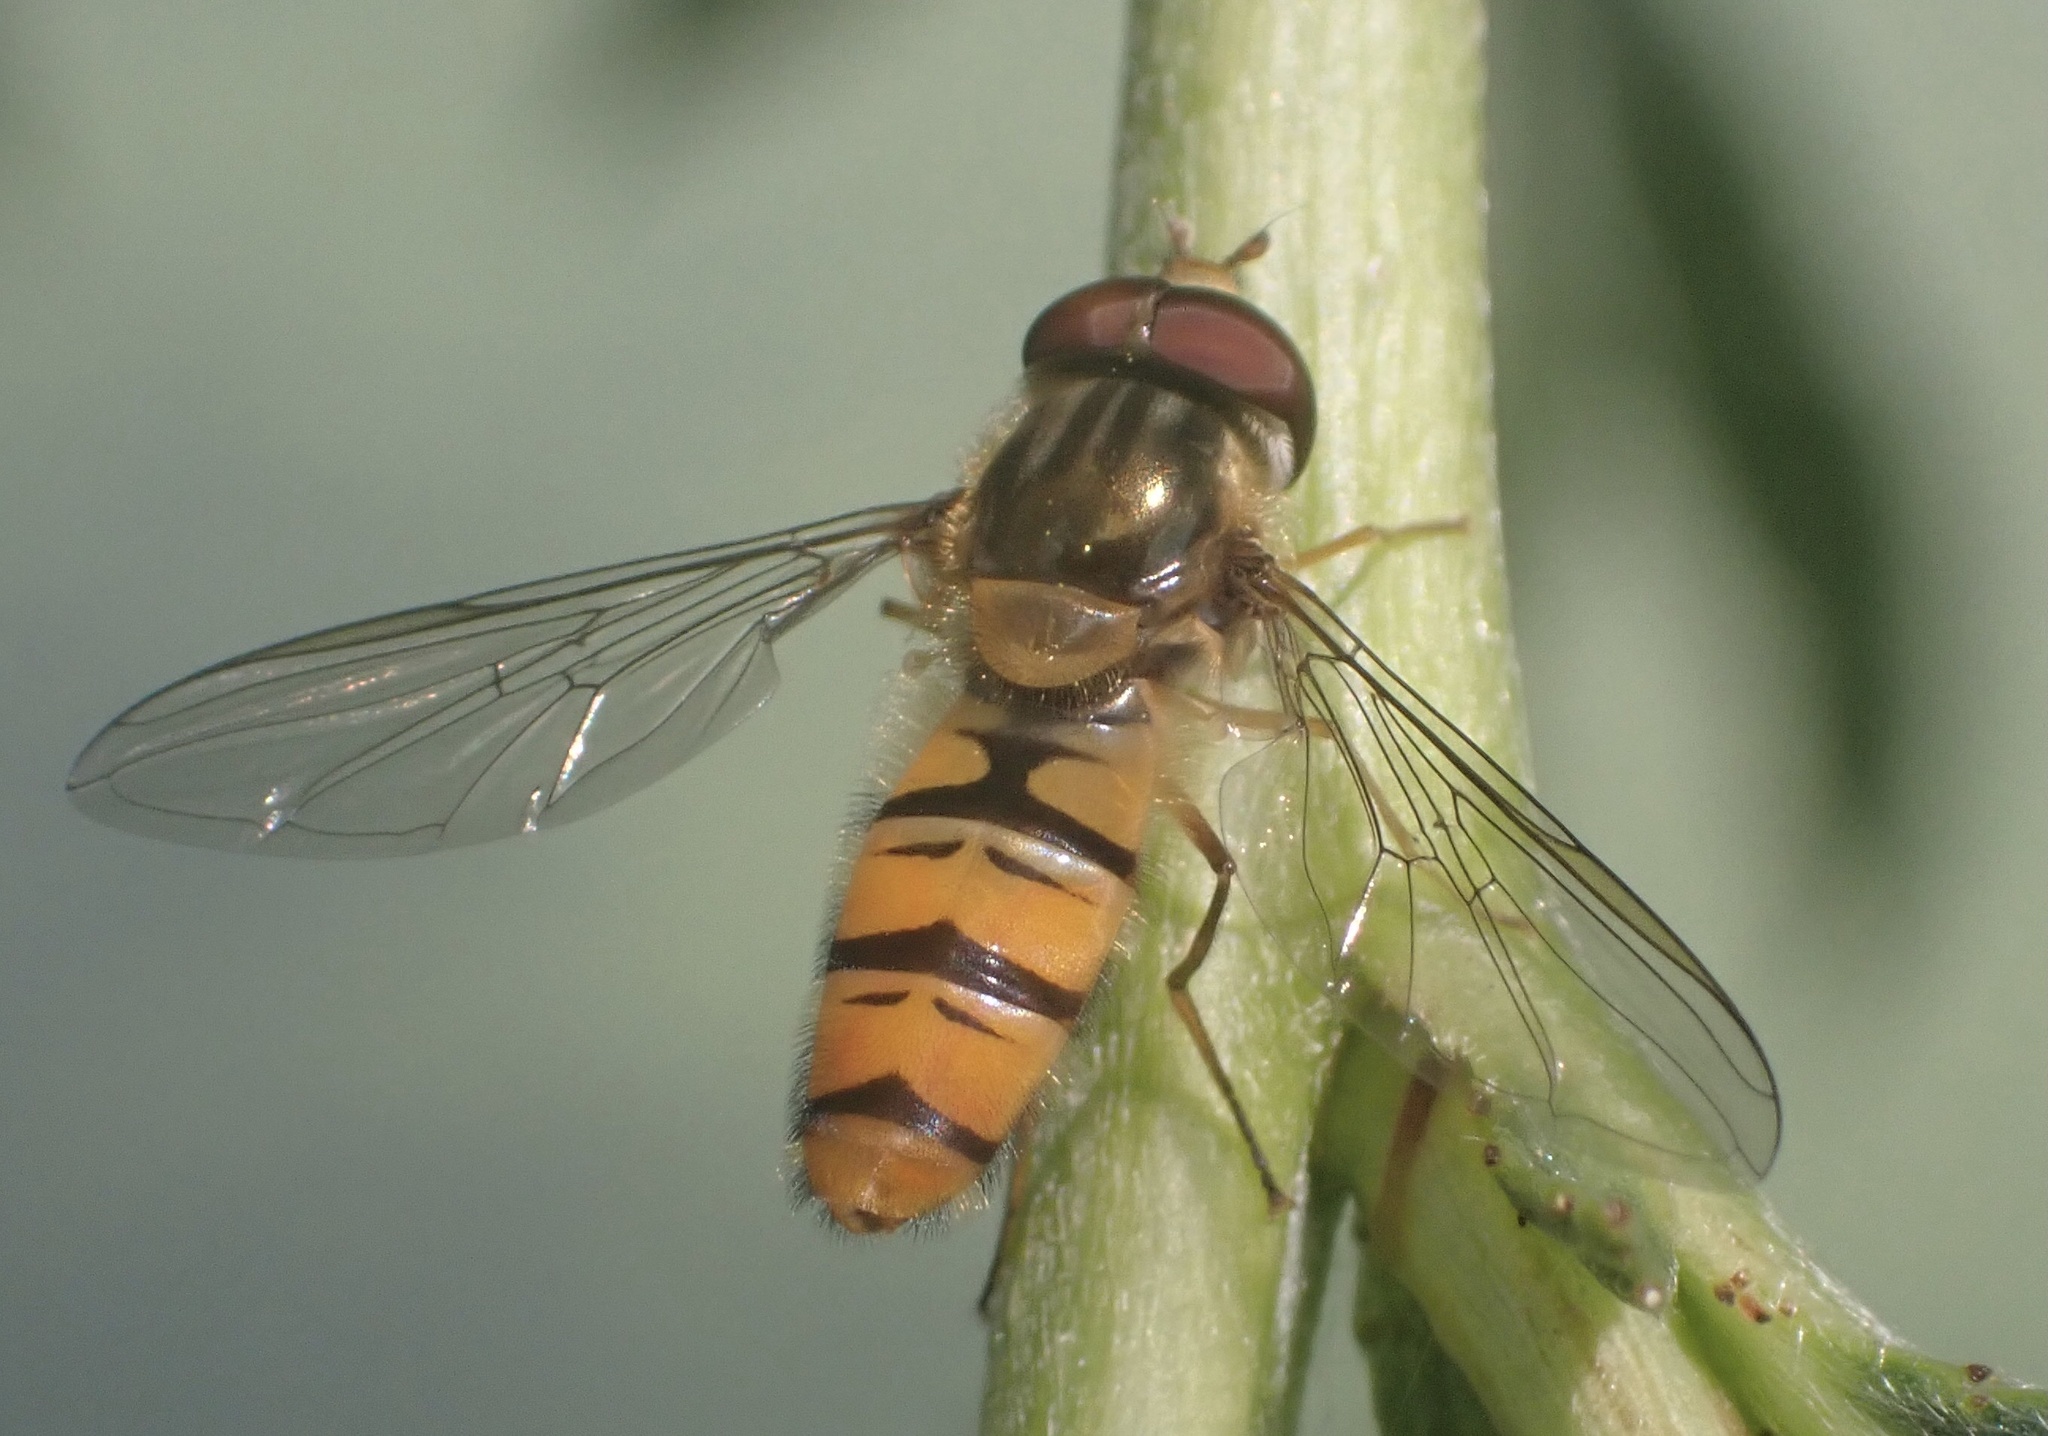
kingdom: Animalia
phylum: Arthropoda
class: Insecta
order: Diptera
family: Syrphidae
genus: Episyrphus
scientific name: Episyrphus balteatus
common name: Marmalade hoverfly
